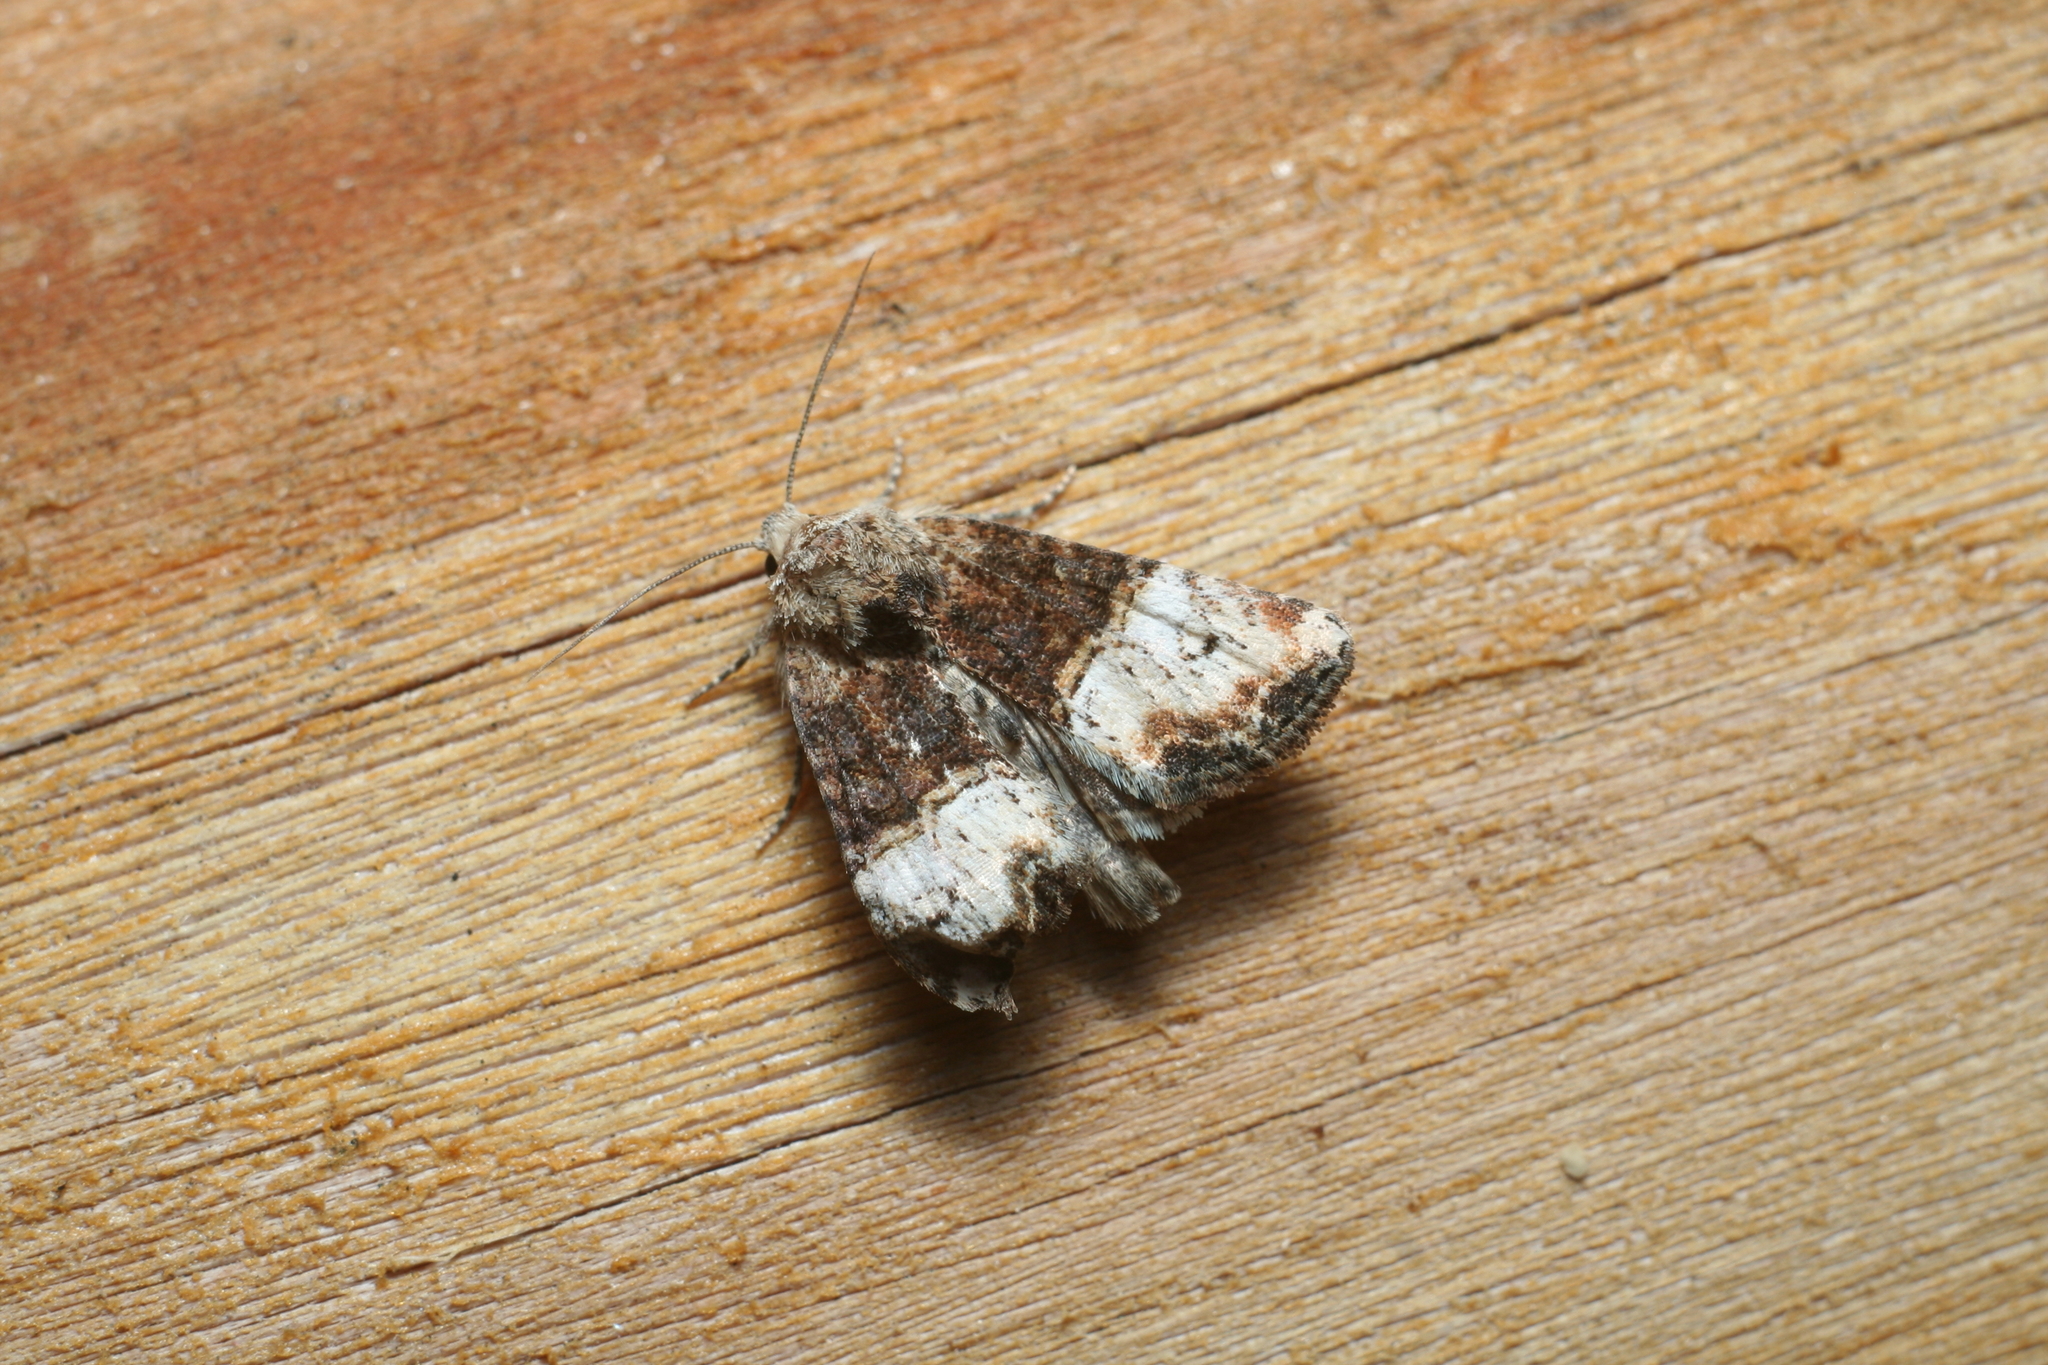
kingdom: Animalia
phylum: Arthropoda
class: Insecta
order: Lepidoptera
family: Noctuidae
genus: Mesoligia
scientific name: Mesoligia furuncula
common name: Cloaked minor
